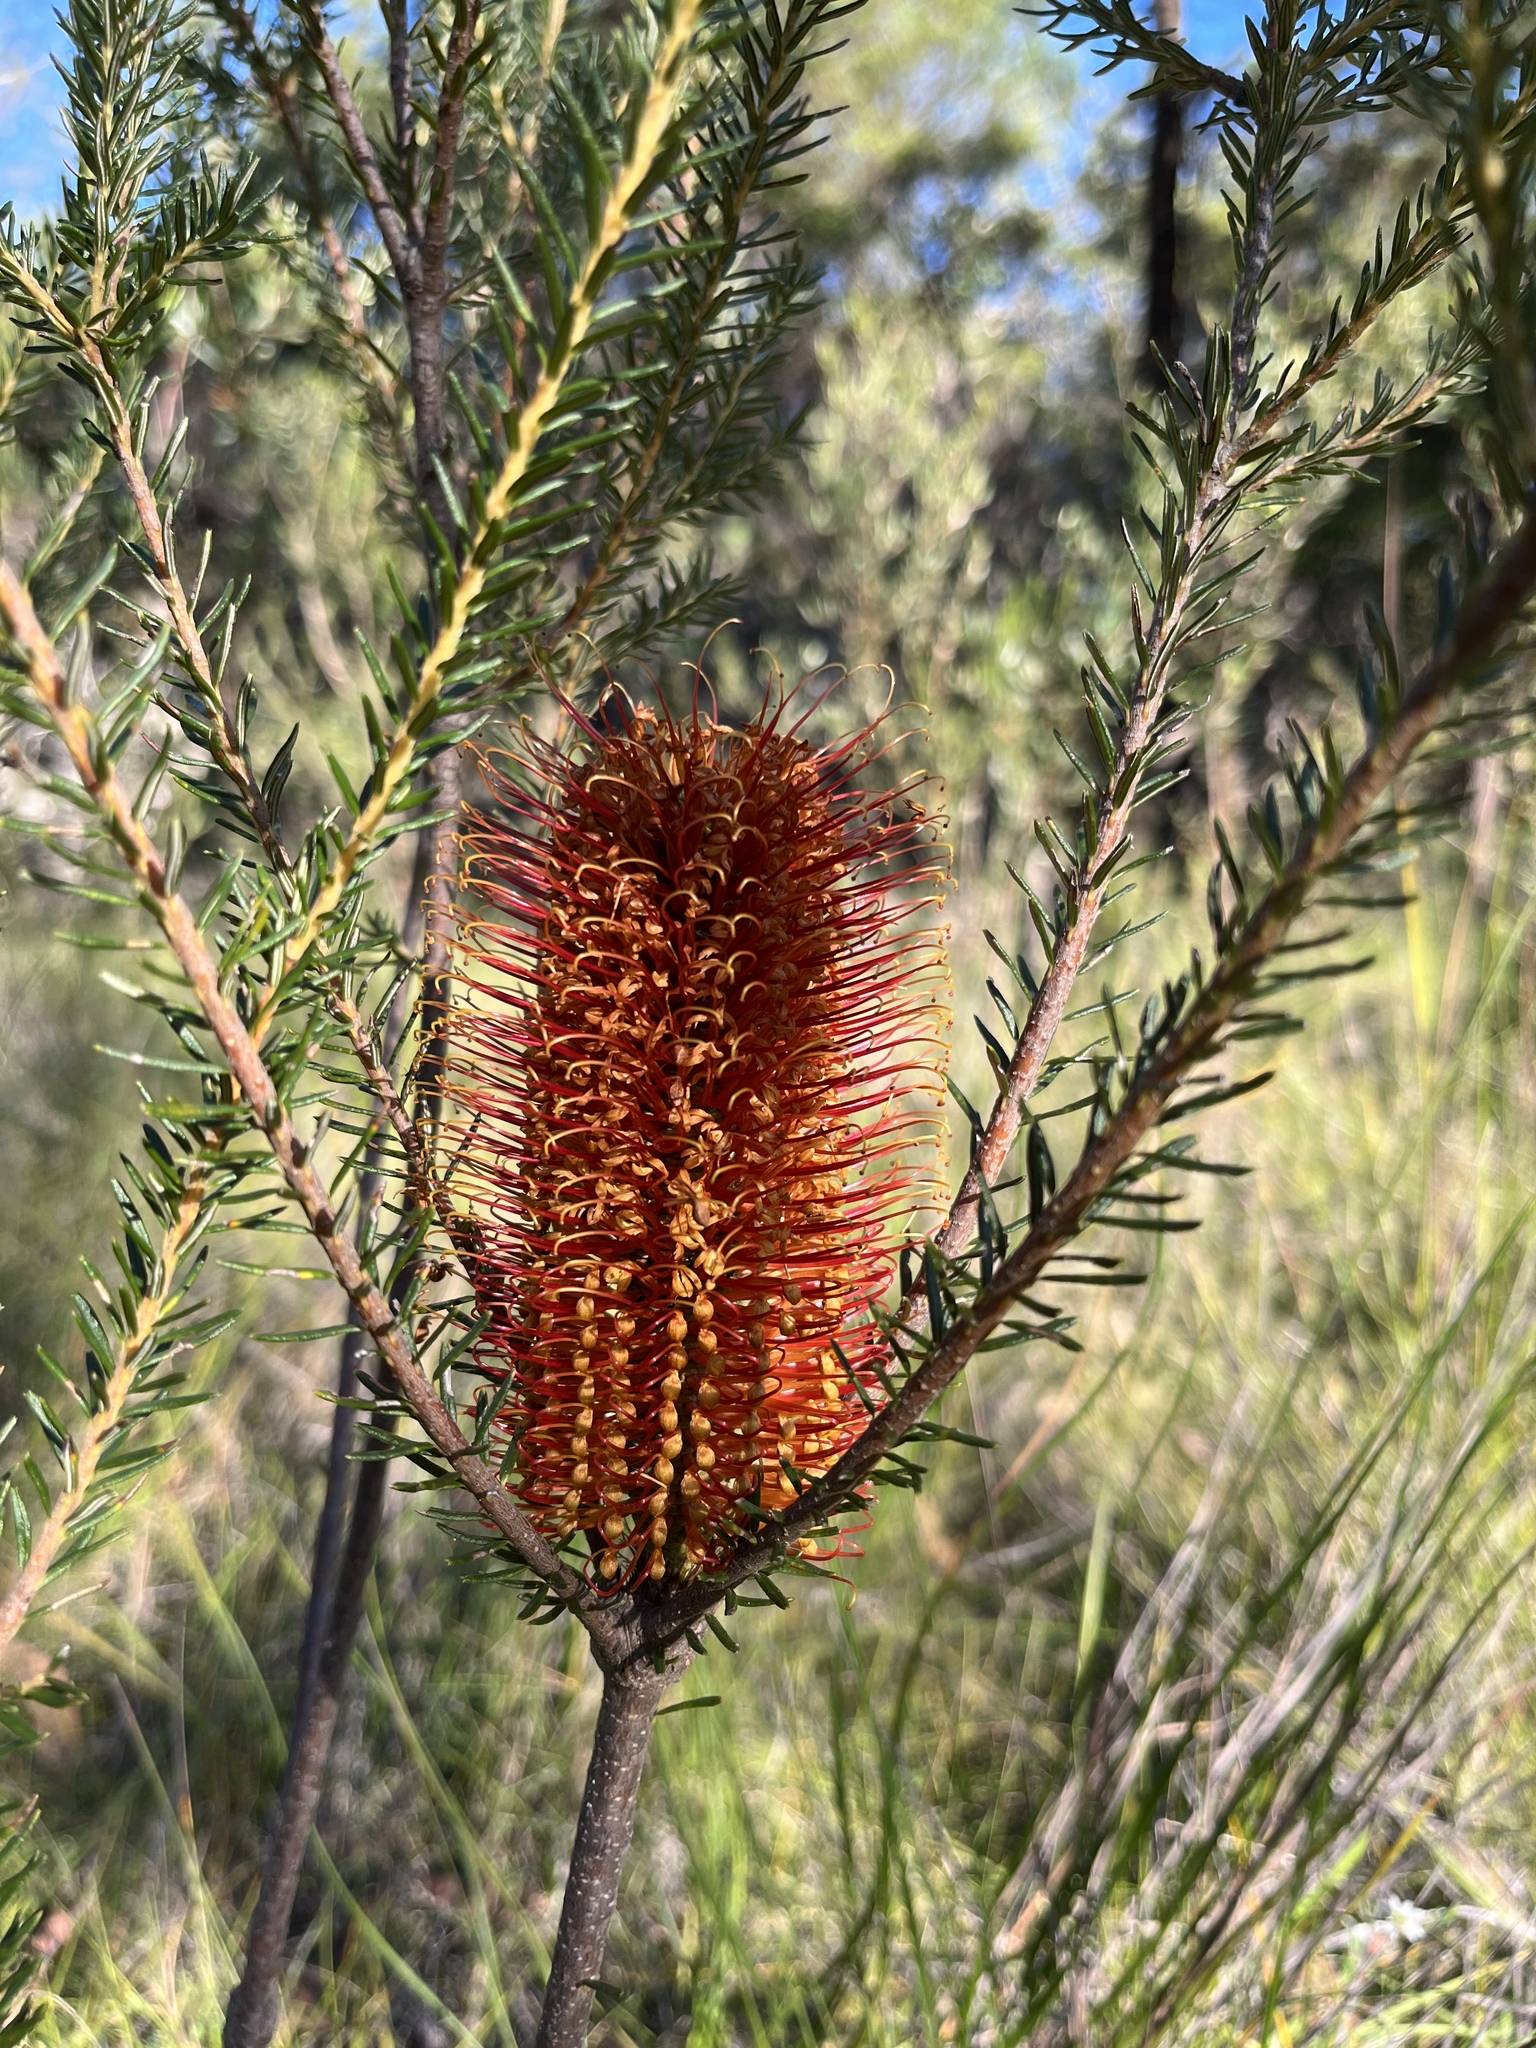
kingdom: Plantae
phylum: Tracheophyta
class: Magnoliopsida
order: Proteales
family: Proteaceae
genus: Banksia
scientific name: Banksia ericifolia
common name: Heath-leaf banksia
